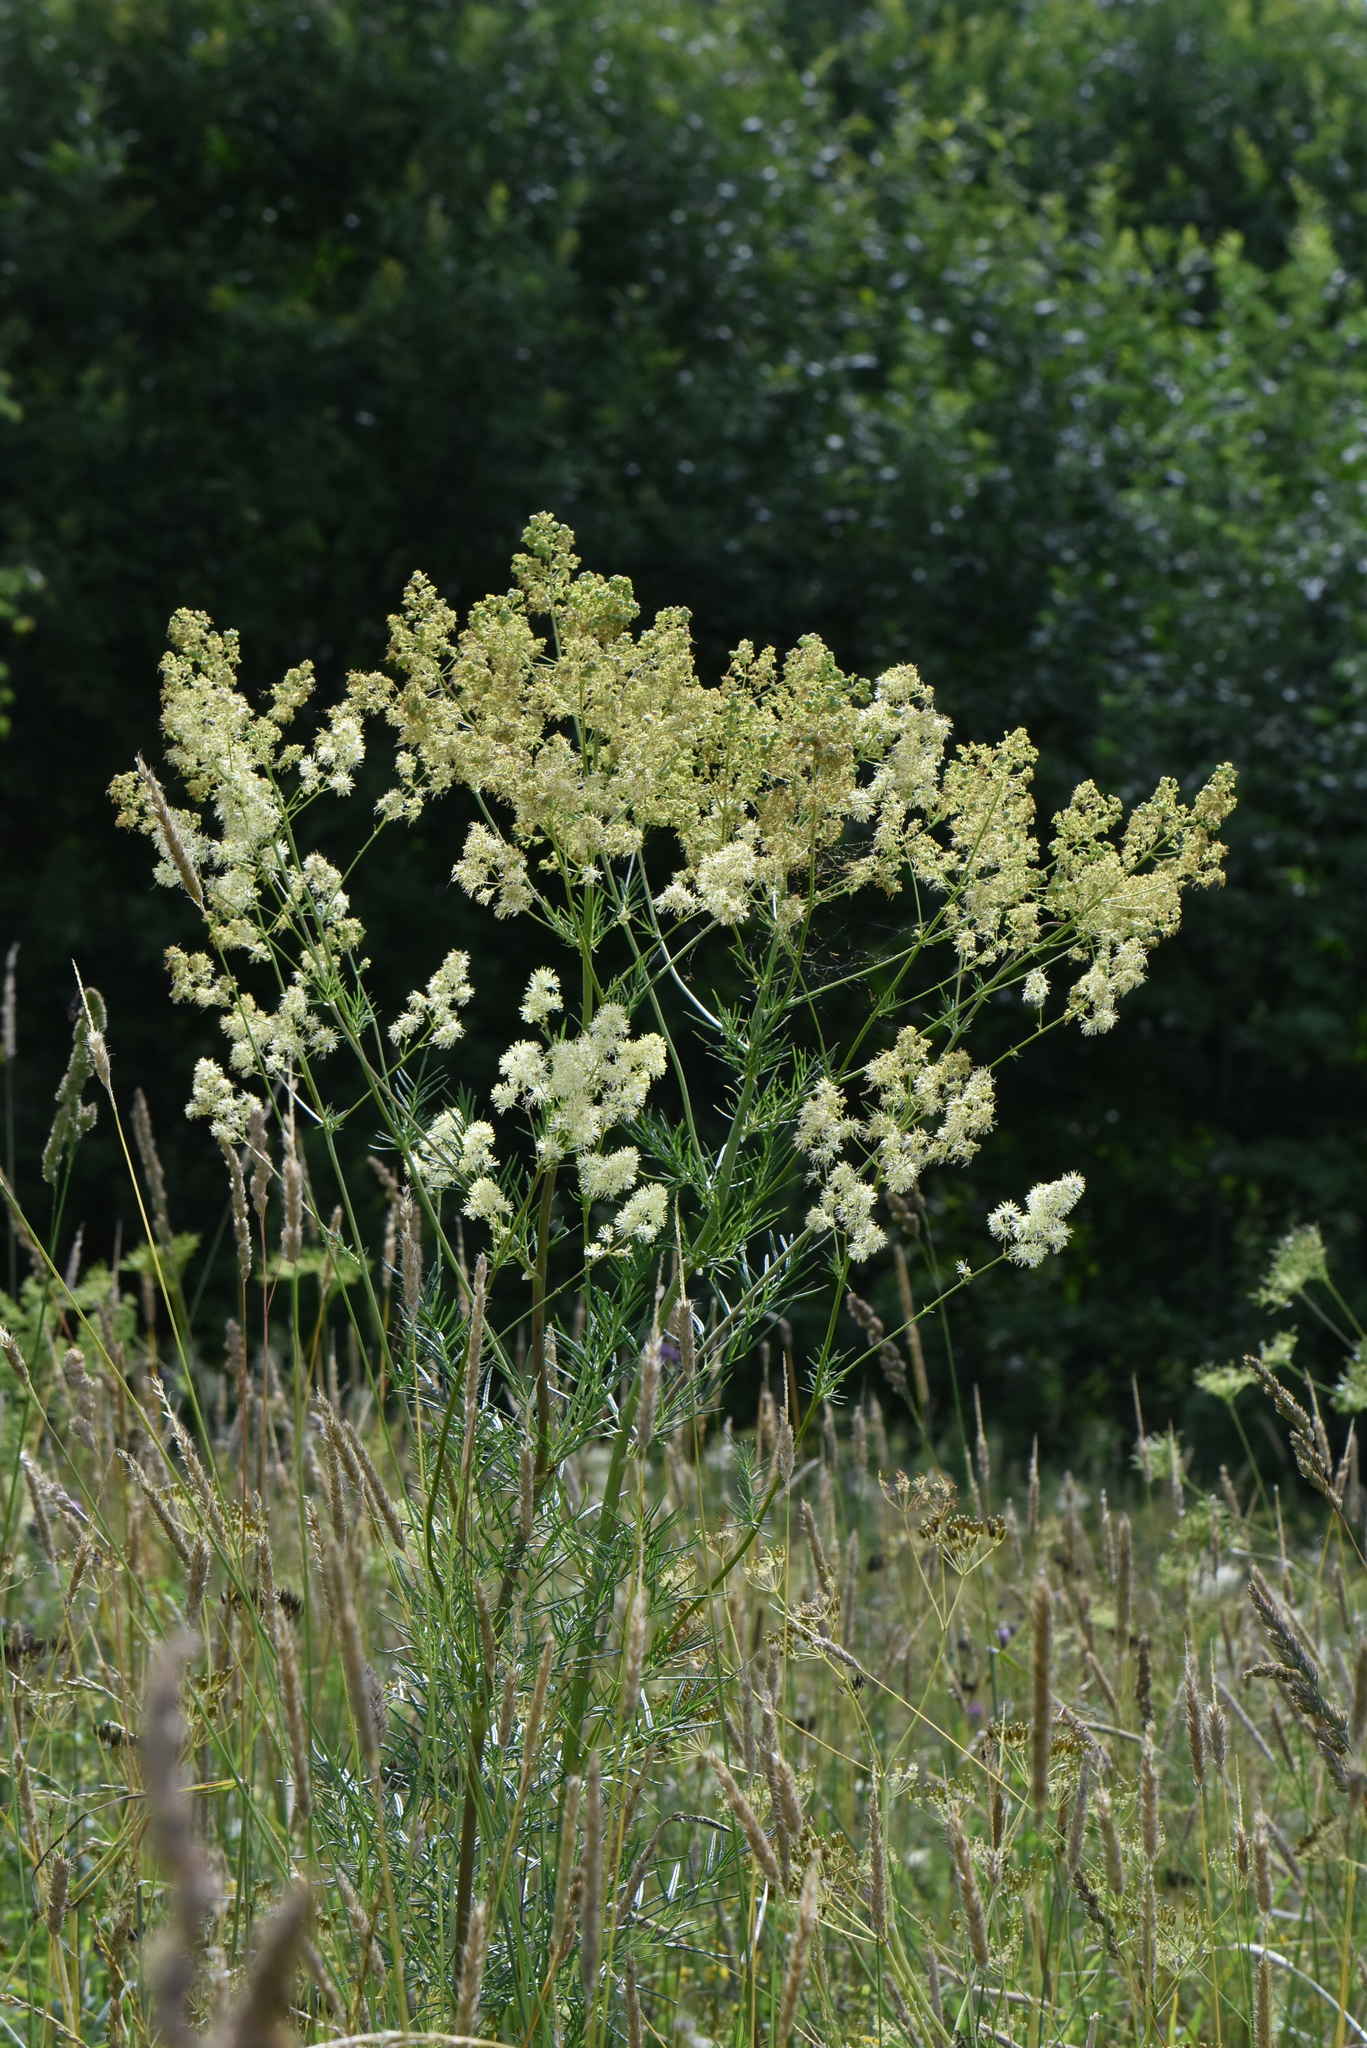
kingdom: Plantae
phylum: Tracheophyta
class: Magnoliopsida
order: Ranunculales
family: Ranunculaceae
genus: Thalictrum
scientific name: Thalictrum lucidum
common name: Shining meadow-rue
